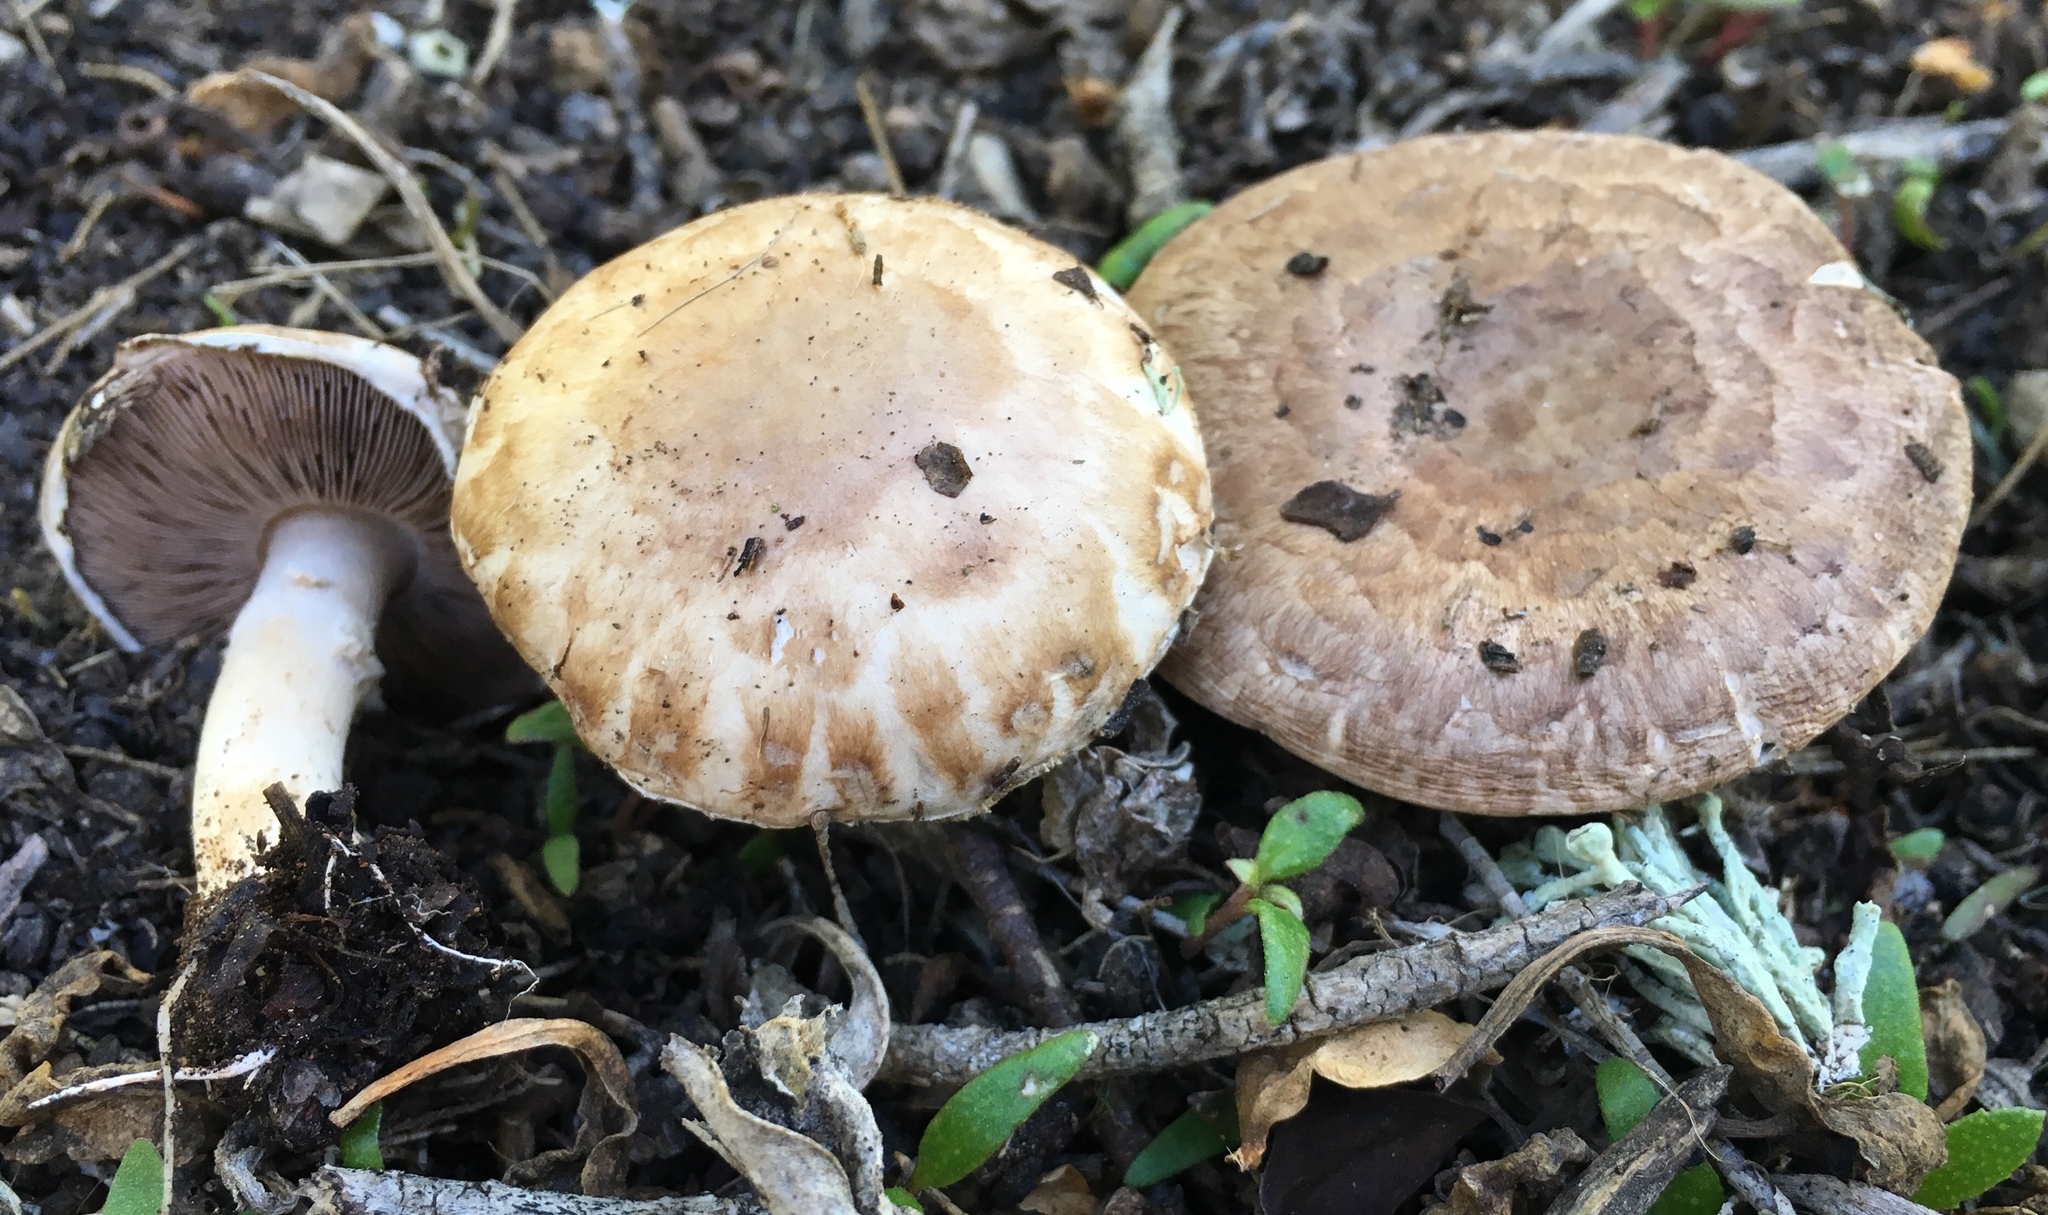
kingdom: Fungi
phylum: Basidiomycota
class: Agaricomycetes
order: Agaricales
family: Agaricaceae
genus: Agaricus
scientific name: Agaricus bisporus
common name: Cultivated mushroom
